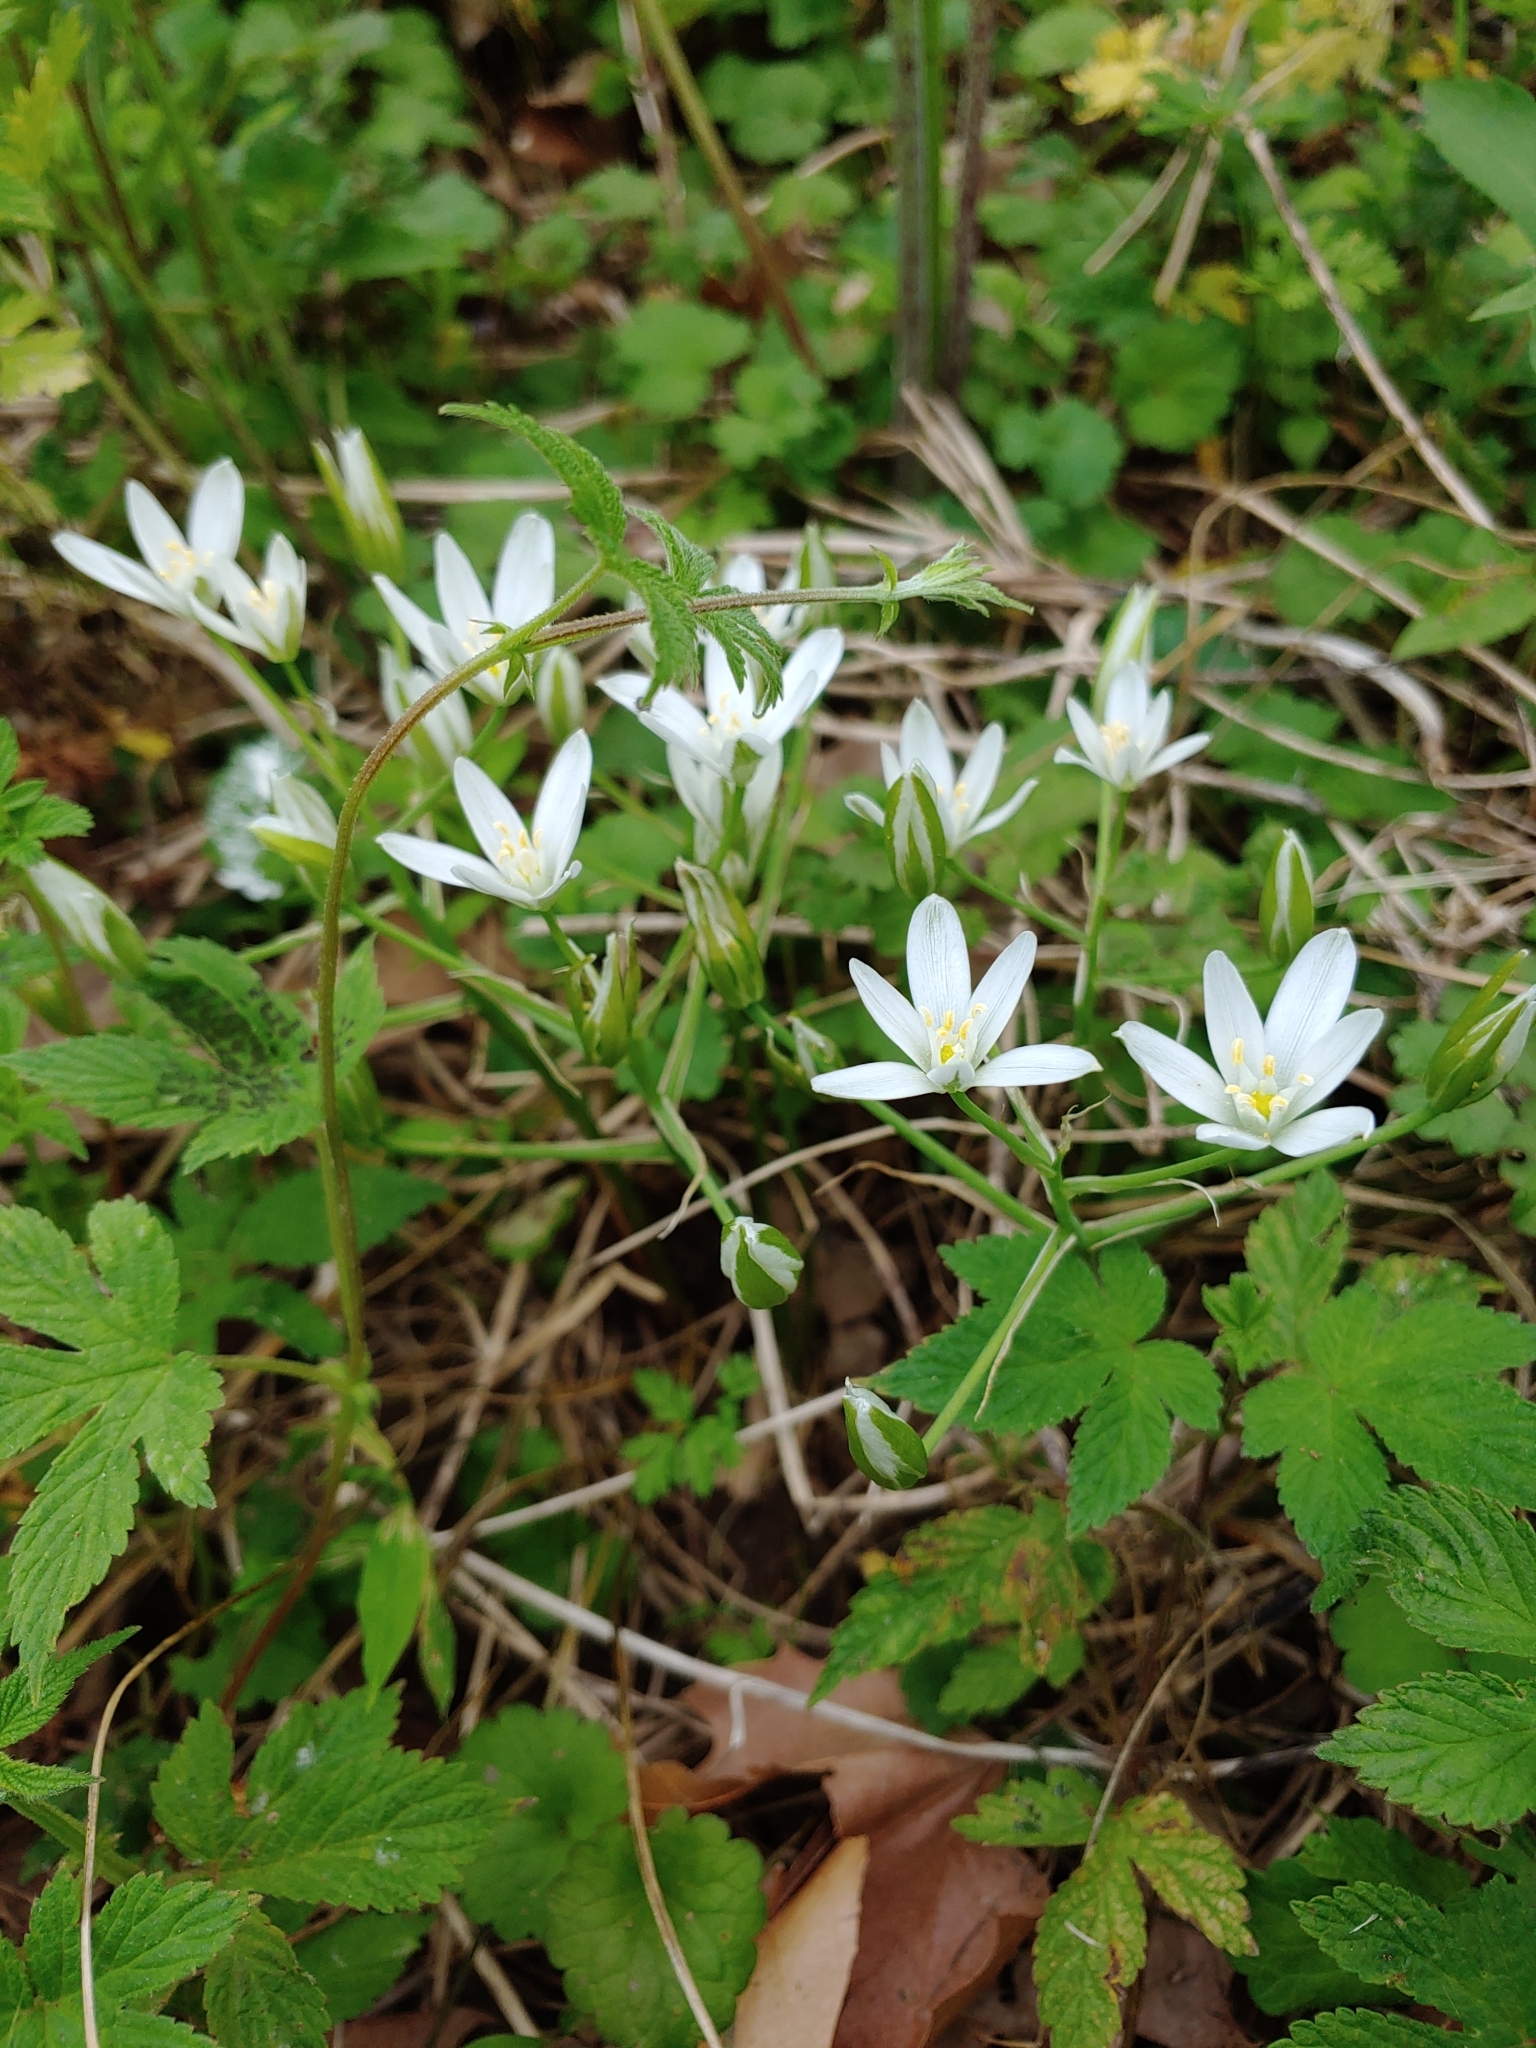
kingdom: Plantae
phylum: Tracheophyta
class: Liliopsida
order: Asparagales
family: Asparagaceae
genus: Ornithogalum
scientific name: Ornithogalum umbellatum
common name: Garden star-of-bethlehem
